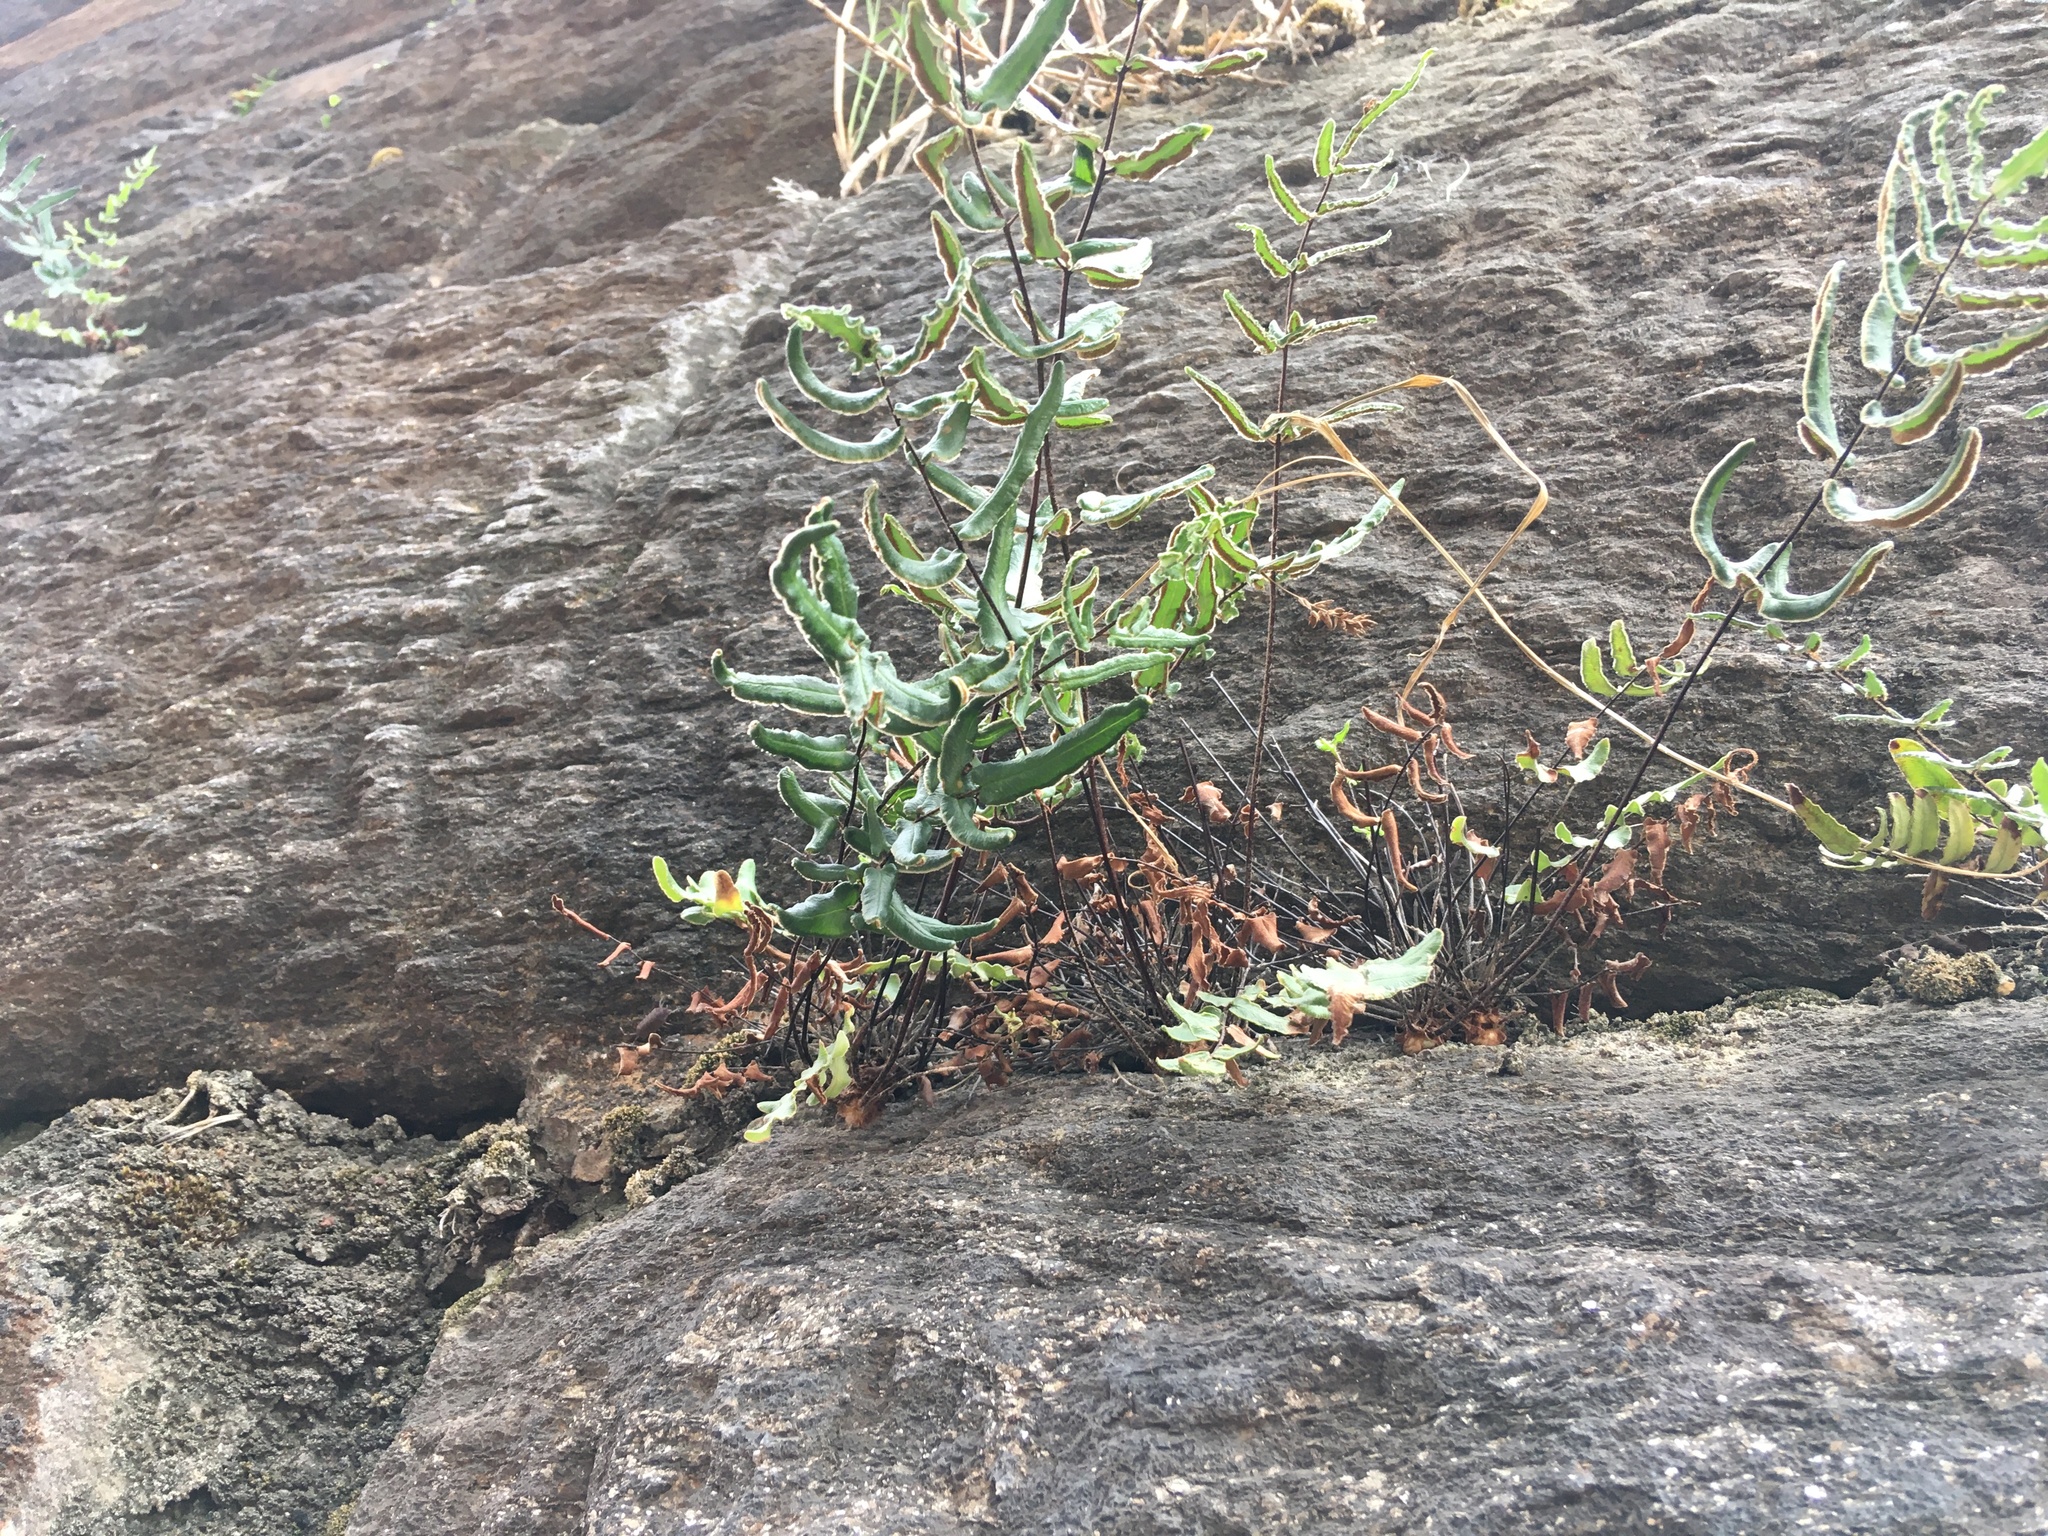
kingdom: Plantae
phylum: Tracheophyta
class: Polypodiopsida
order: Polypodiales
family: Pteridaceae
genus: Pellaea
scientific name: Pellaea atropurpurea
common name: Hairy cliffbrake
